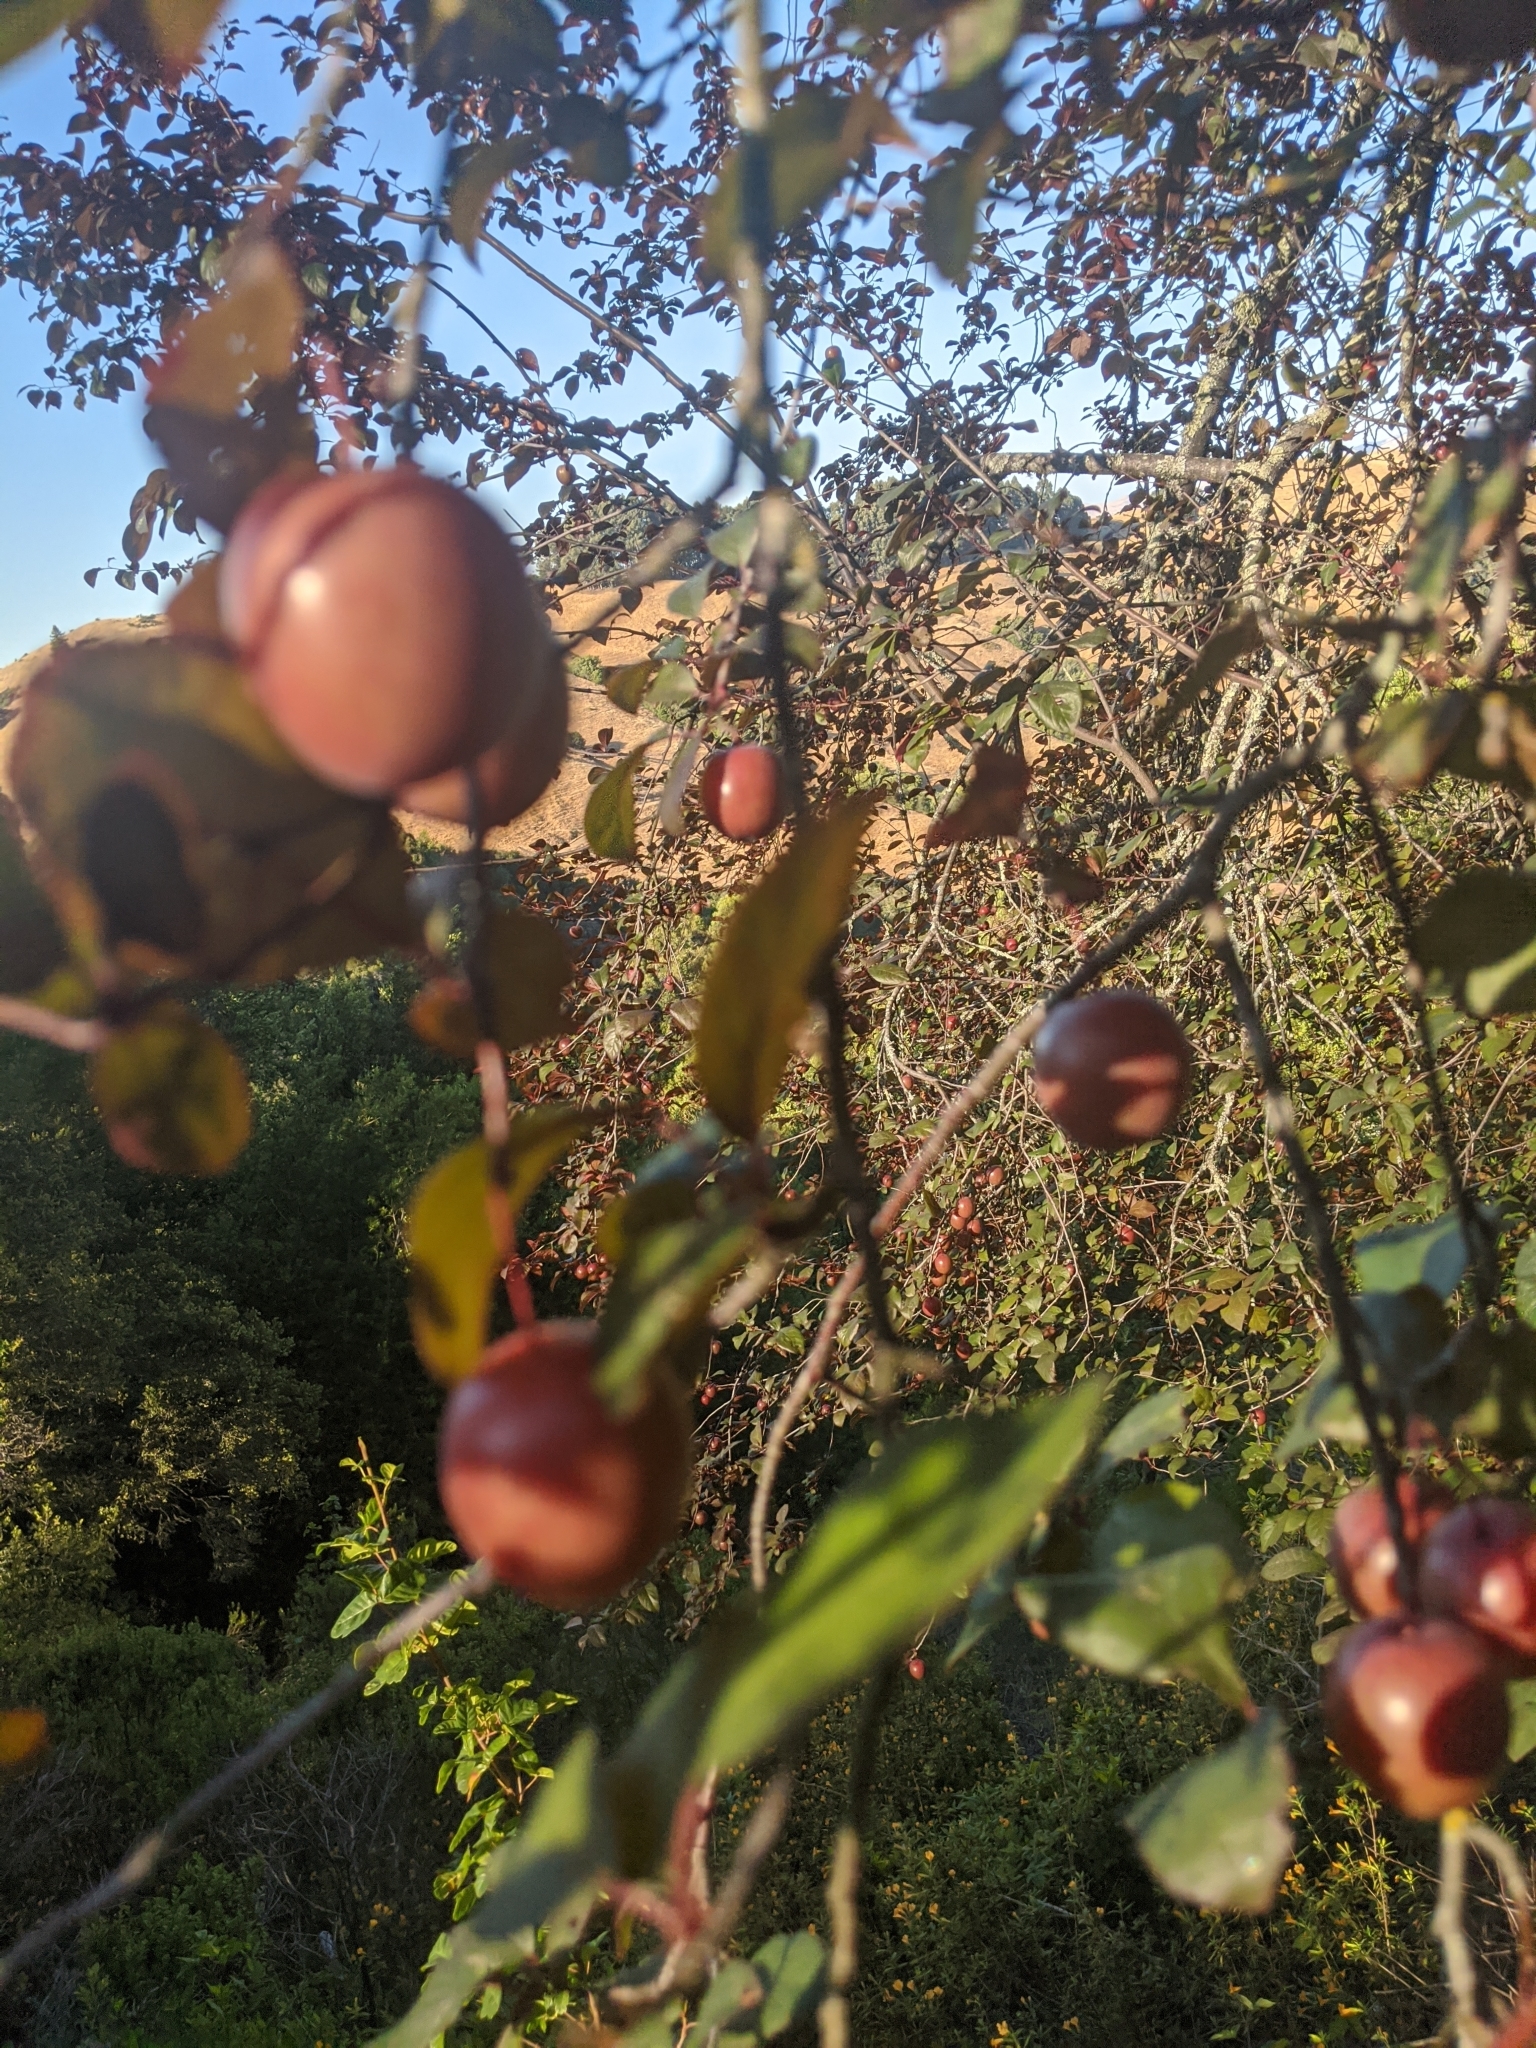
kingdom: Plantae
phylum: Tracheophyta
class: Magnoliopsida
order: Rosales
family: Rosaceae
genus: Prunus
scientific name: Prunus cerasifera
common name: Cherry plum
